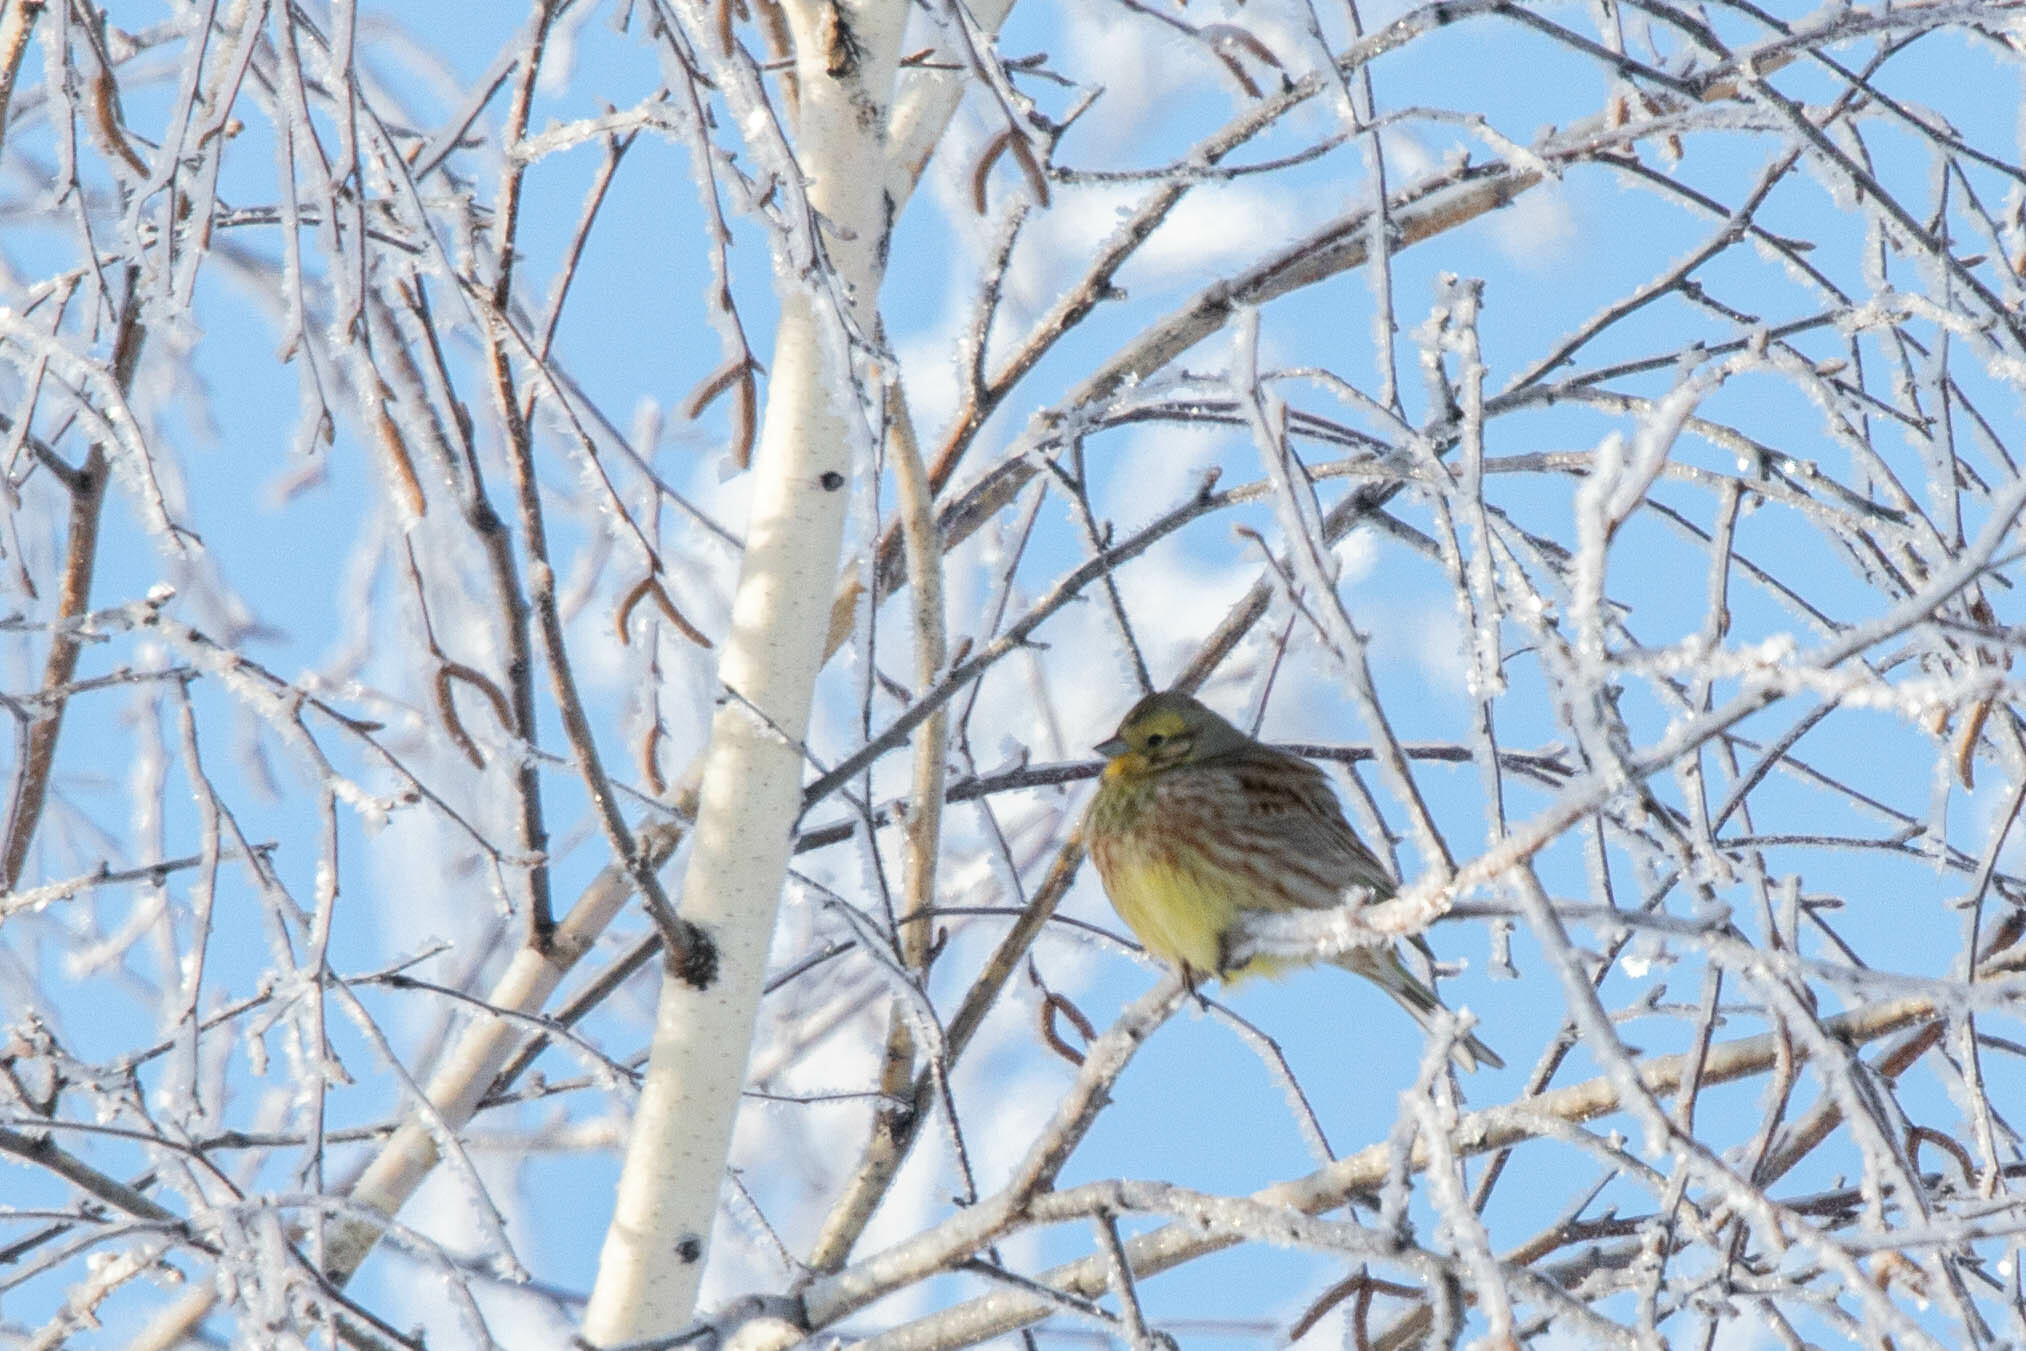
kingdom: Animalia
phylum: Chordata
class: Aves
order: Passeriformes
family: Emberizidae
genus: Emberiza
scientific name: Emberiza citrinella
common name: Yellowhammer
